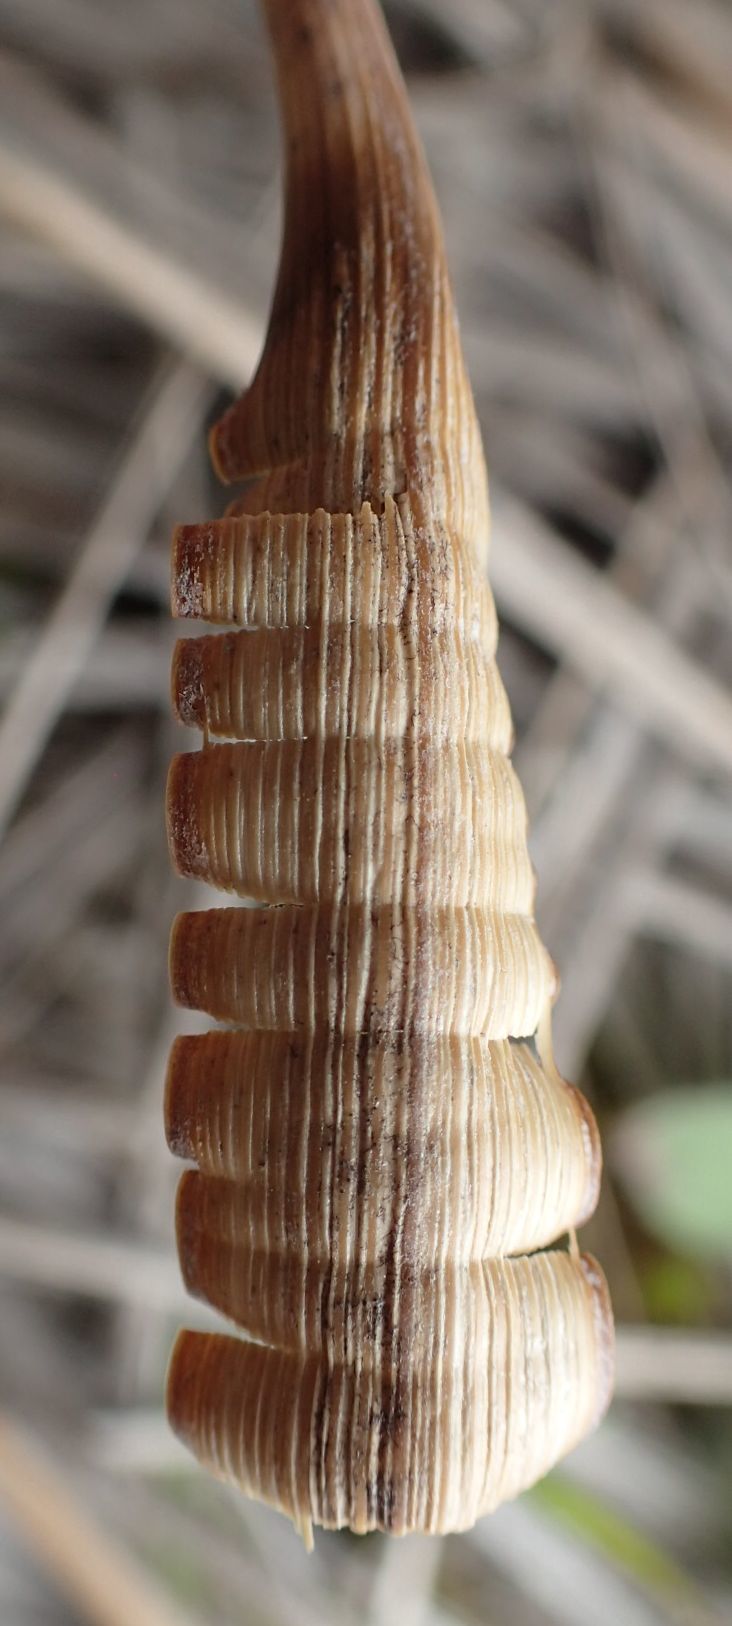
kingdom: Plantae
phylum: Tracheophyta
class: Liliopsida
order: Poales
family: Poaceae
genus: Chionochloa
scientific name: Chionochloa rigida
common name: Narrow leaved snow tussock
